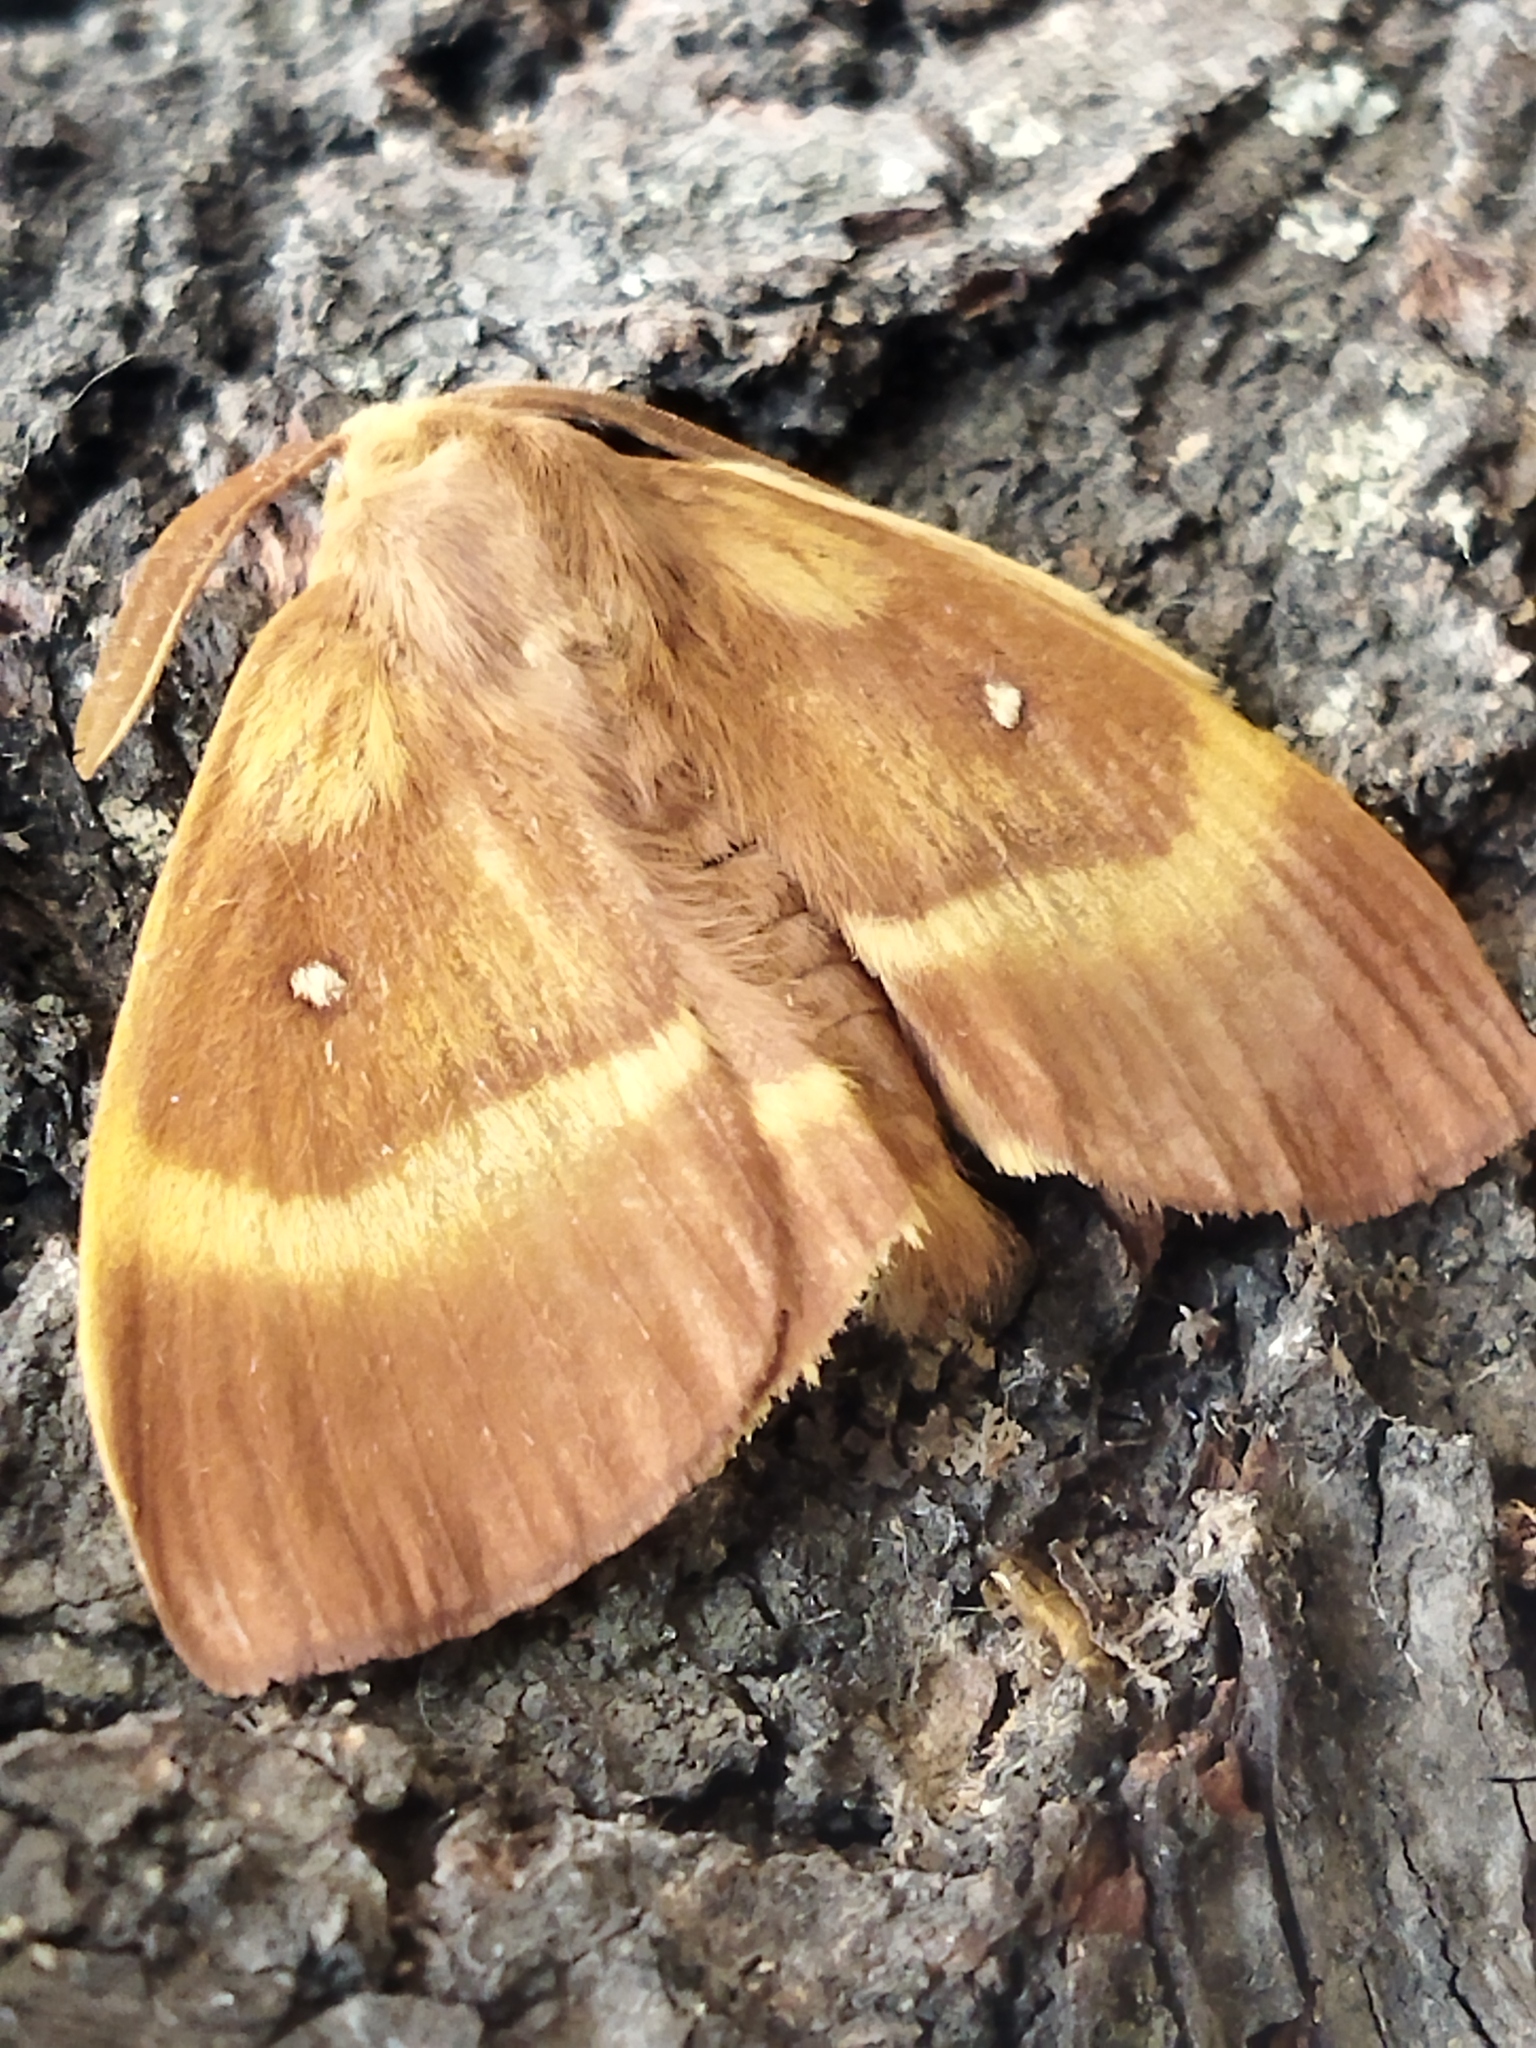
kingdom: Animalia
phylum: Arthropoda
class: Insecta
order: Lepidoptera
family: Lasiocampidae
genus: Lasiocampa
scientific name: Lasiocampa quercus
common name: Oak eggar
